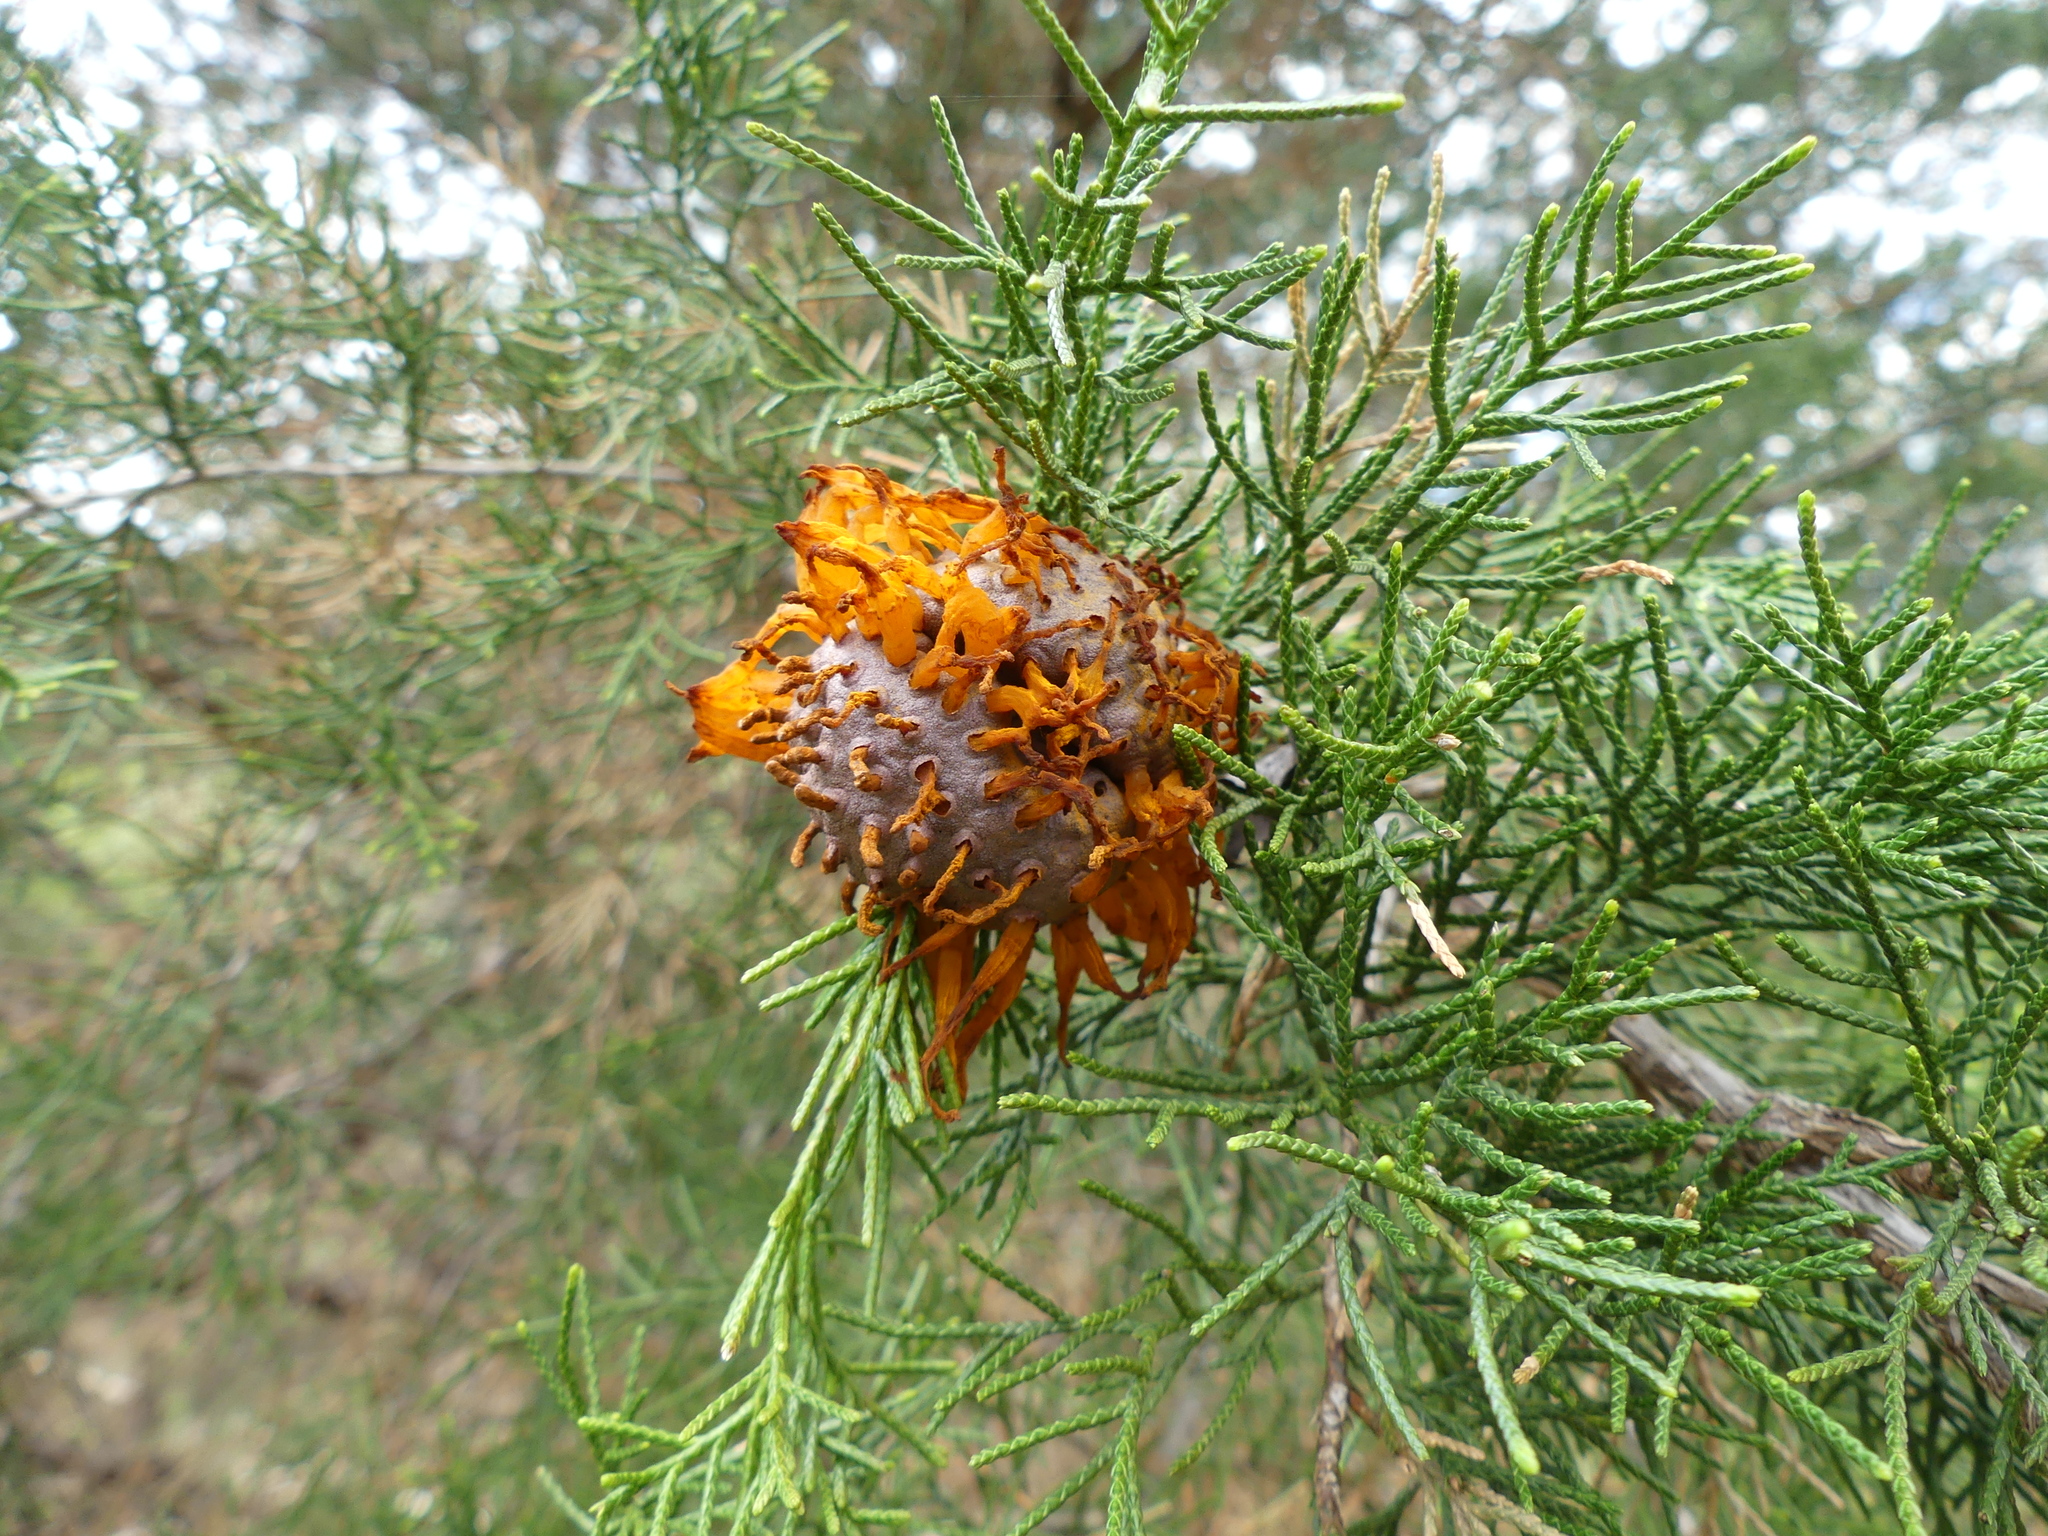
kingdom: Fungi
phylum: Basidiomycota
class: Pucciniomycetes
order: Pucciniales
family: Gymnosporangiaceae
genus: Gymnosporangium
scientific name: Gymnosporangium juniperi-virginianae
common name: Juniper-apple rust
